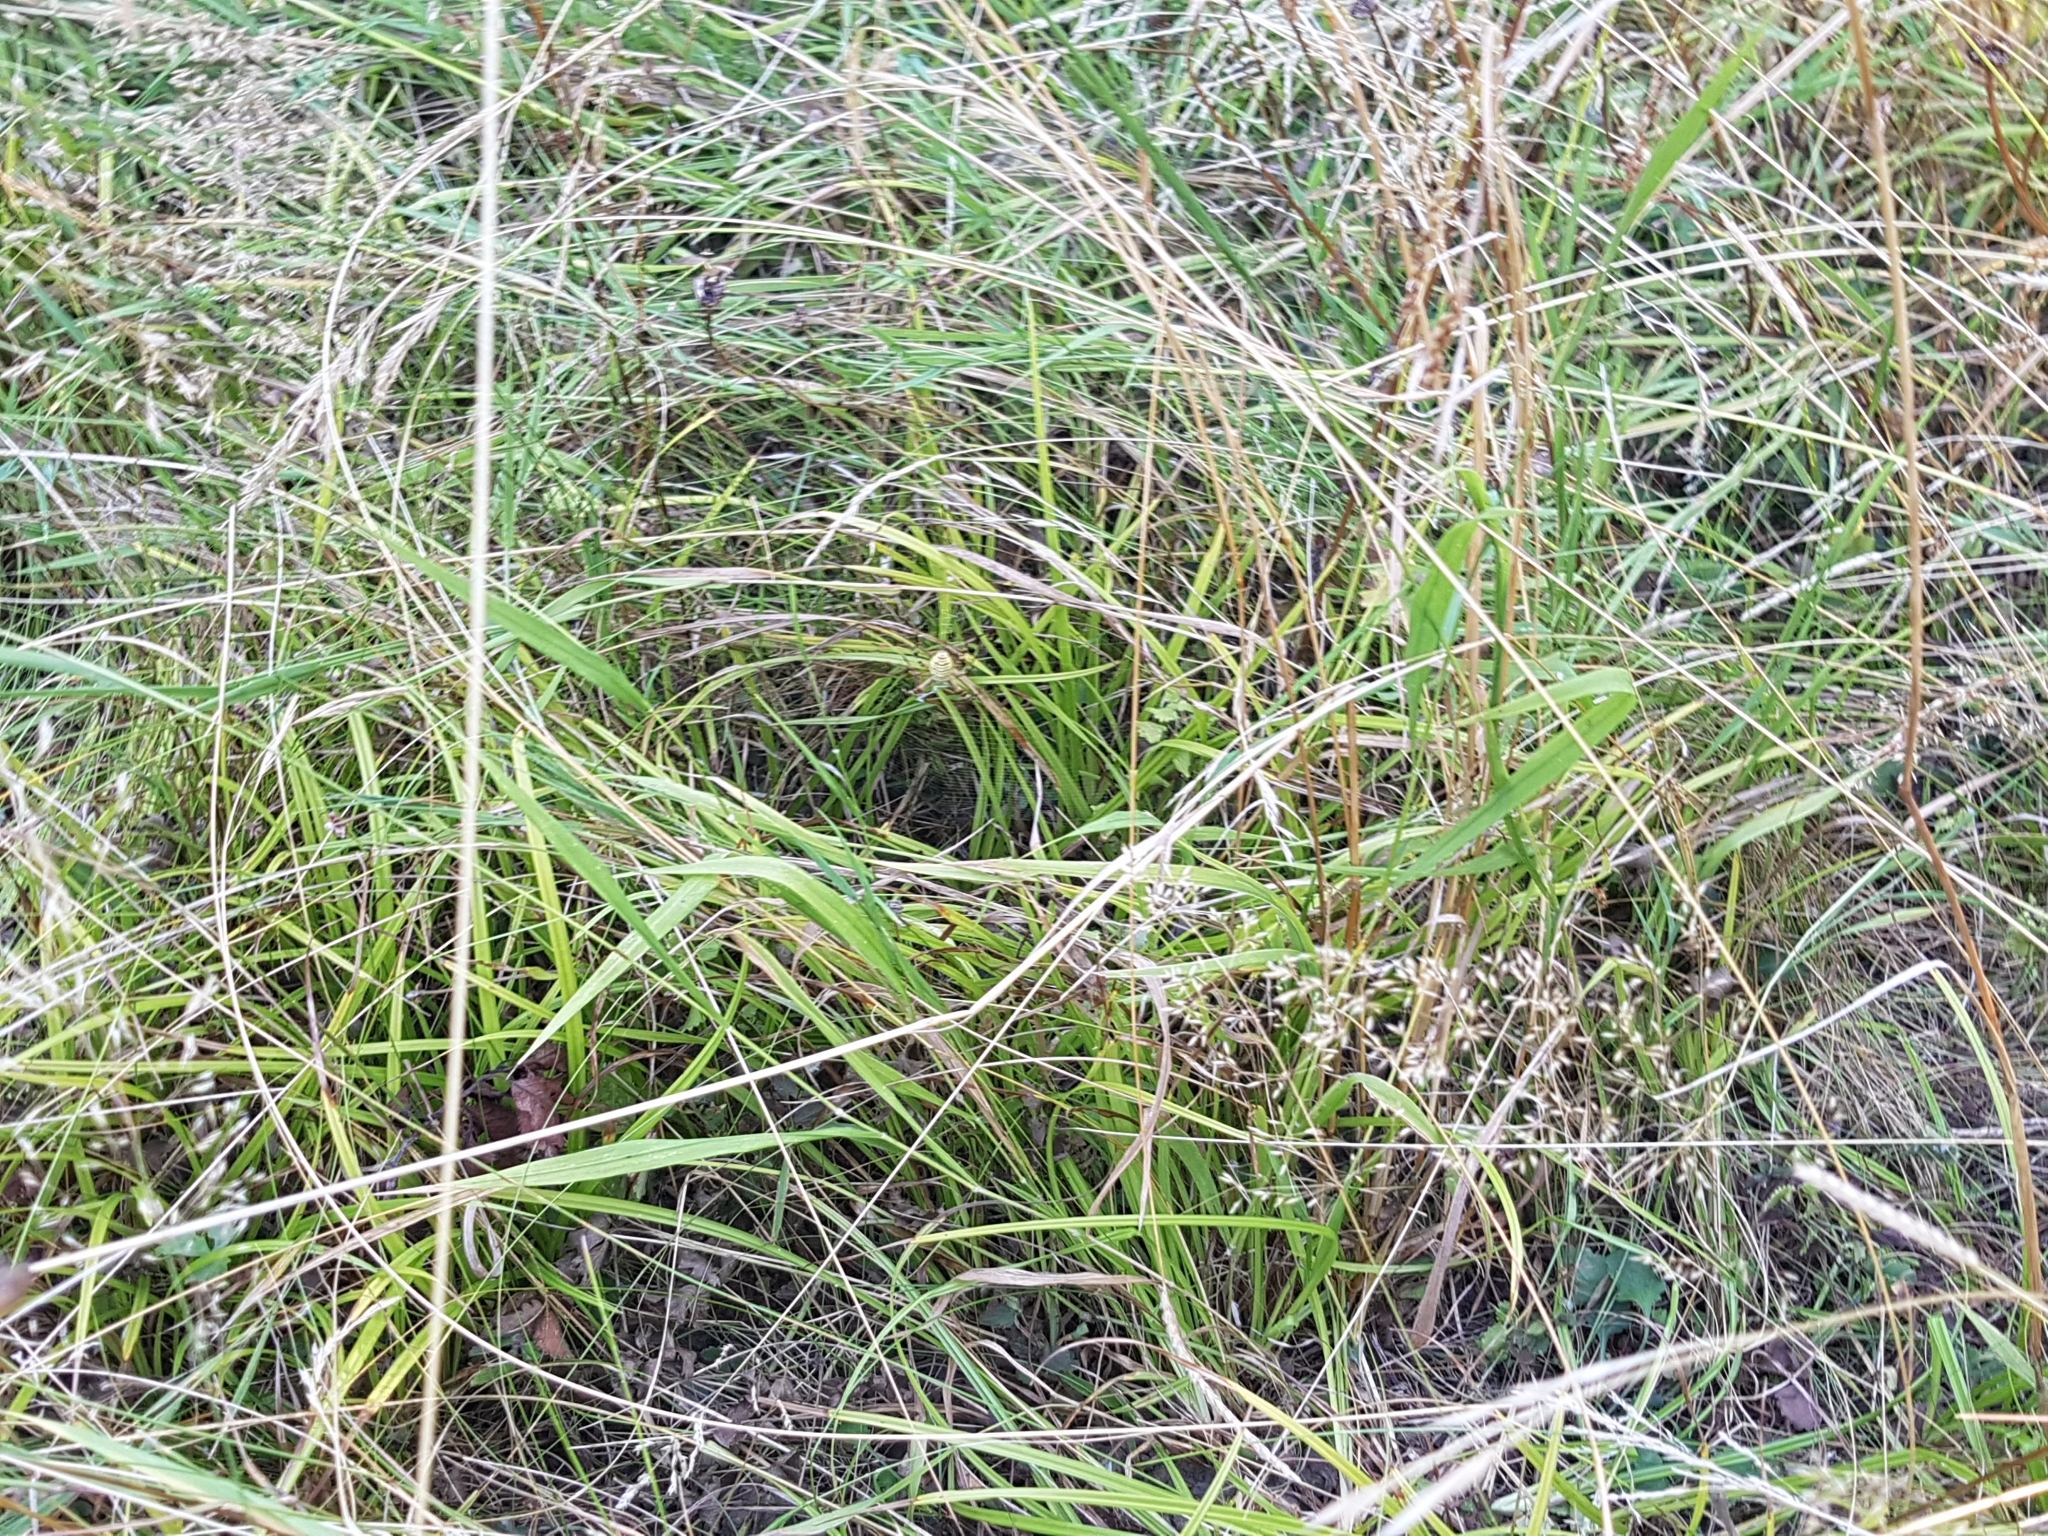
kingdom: Animalia
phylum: Arthropoda
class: Arachnida
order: Araneae
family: Araneidae
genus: Argiope
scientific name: Argiope bruennichi
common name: Wasp spider
